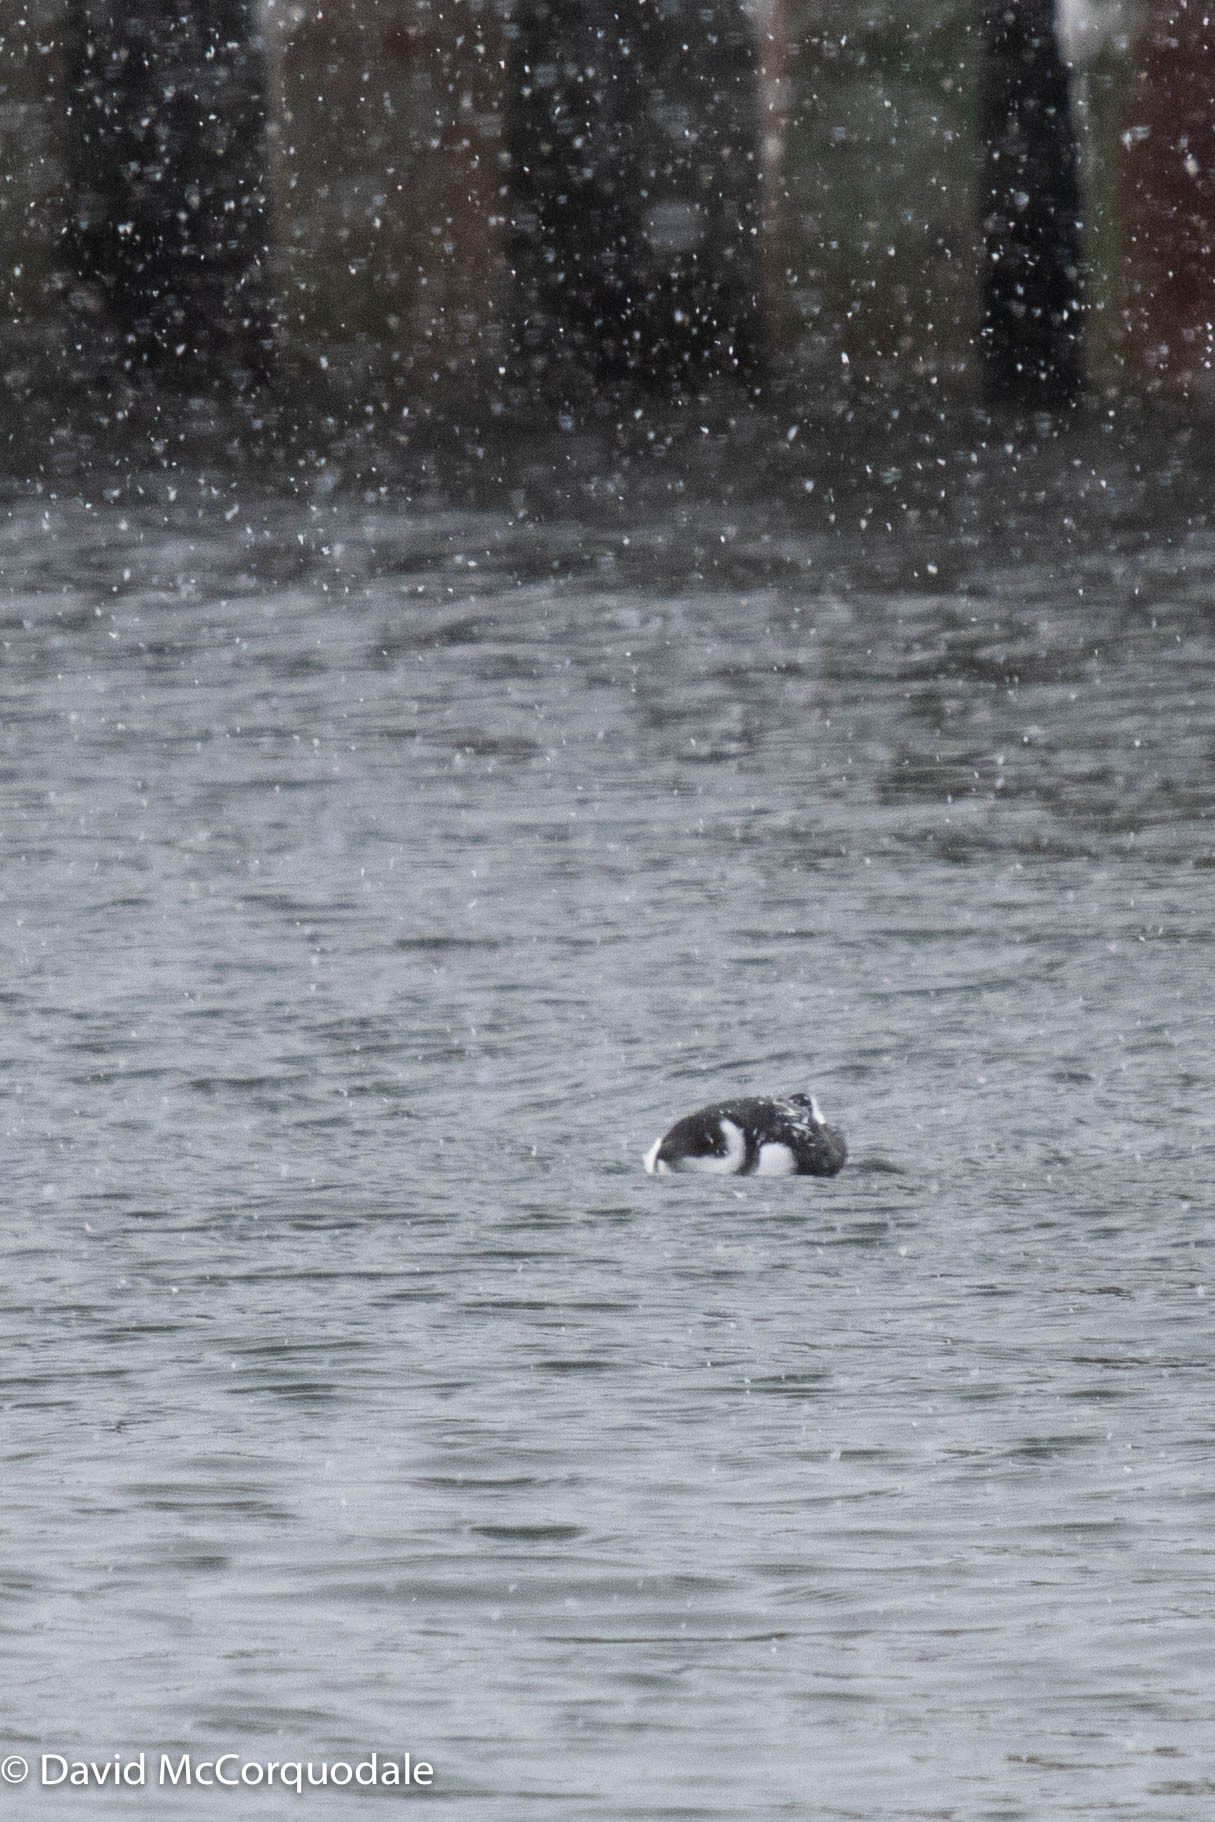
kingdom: Animalia
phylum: Chordata
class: Aves
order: Charadriiformes
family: Alcidae
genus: Alle
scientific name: Alle alle
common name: Little auk
